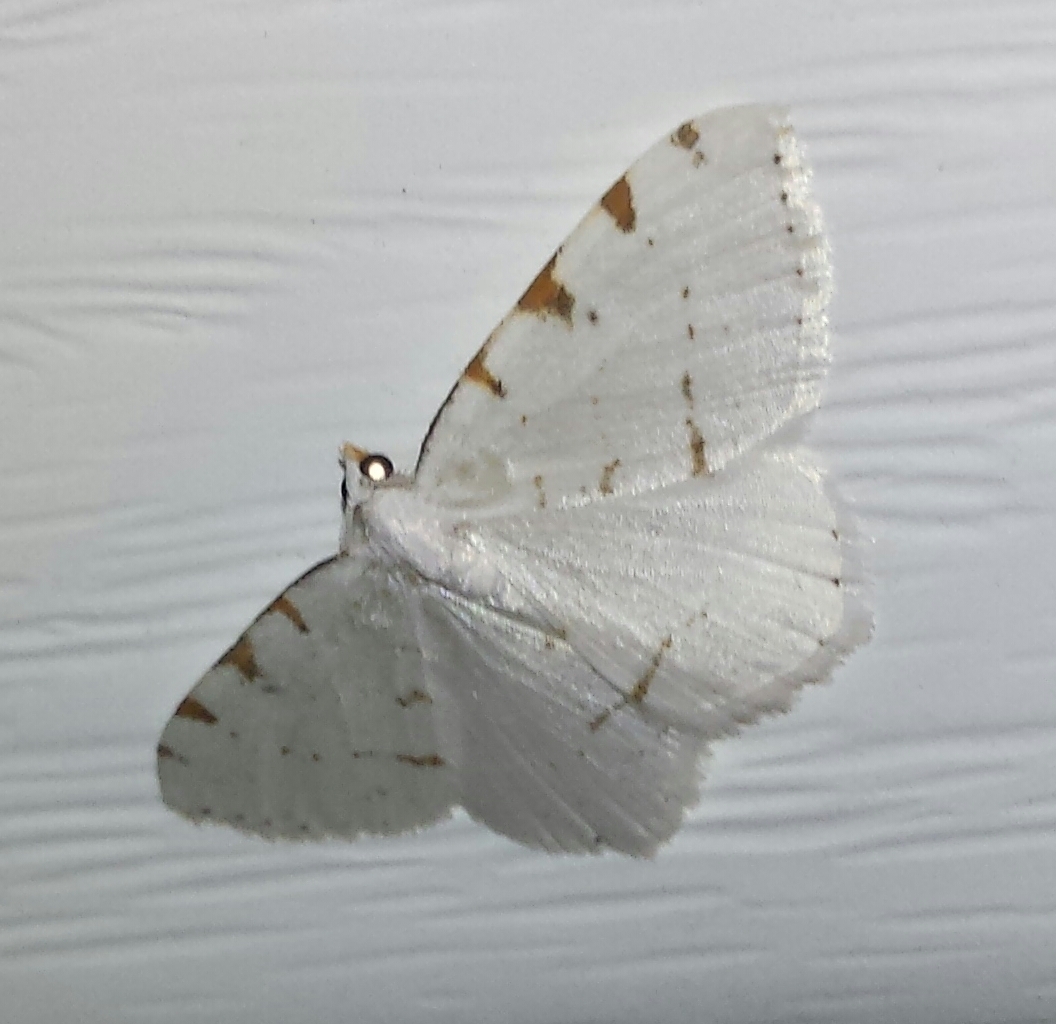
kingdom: Animalia
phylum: Arthropoda
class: Insecta
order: Lepidoptera
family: Geometridae
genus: Macaria
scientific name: Macaria pustularia
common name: Lesser maple spanworm moth
